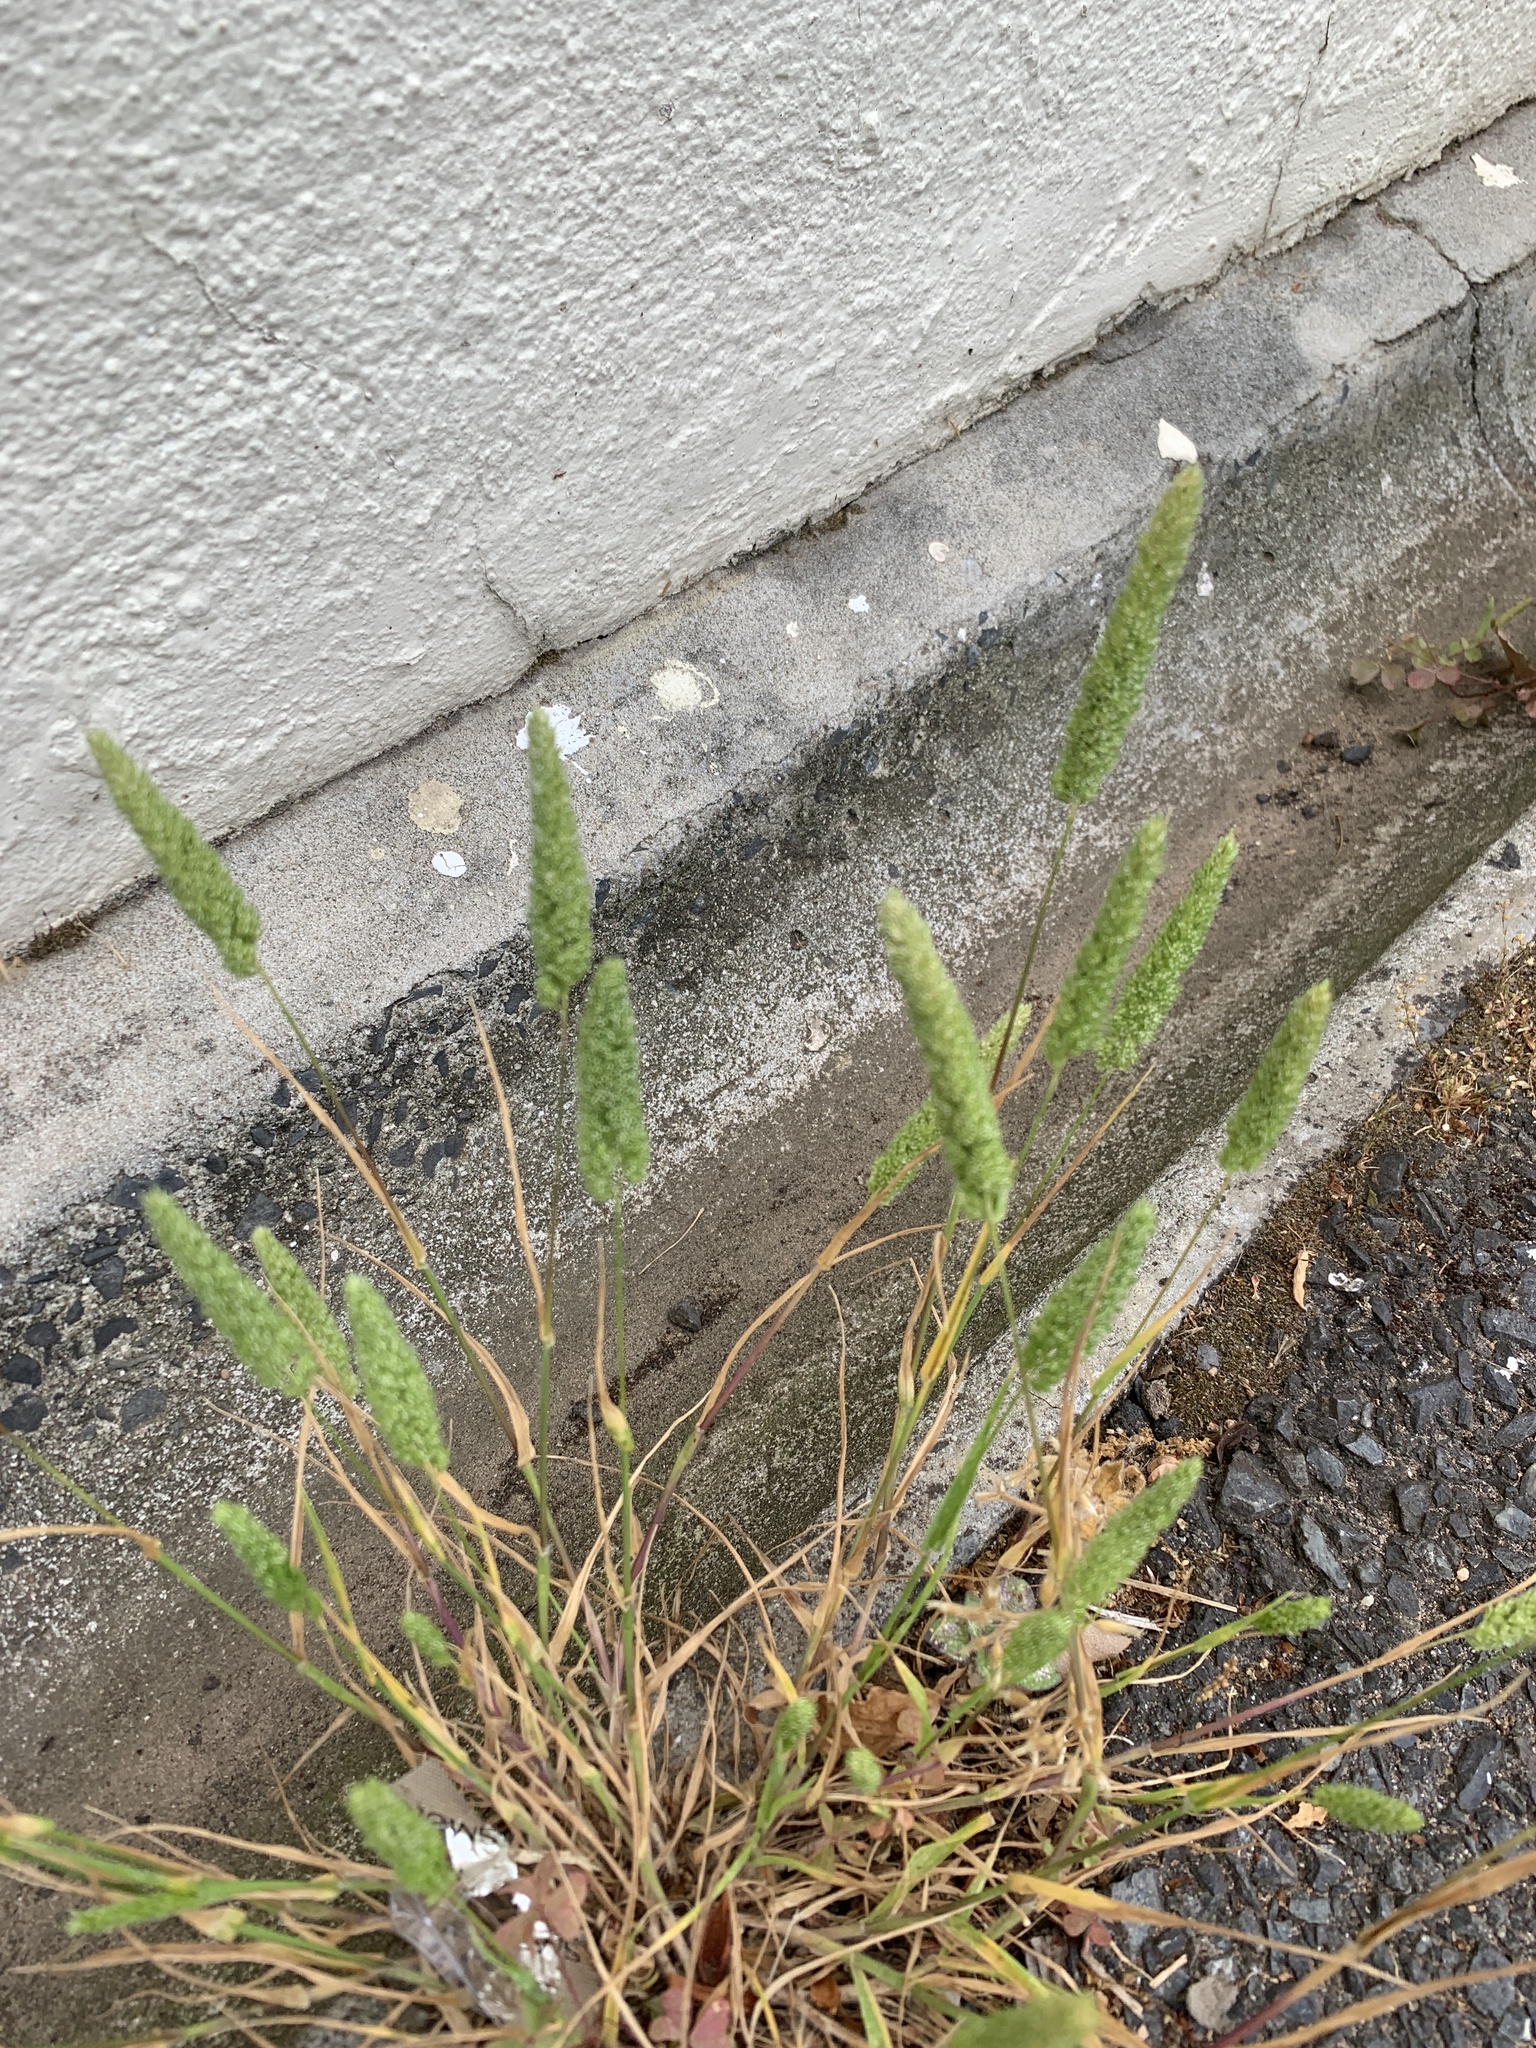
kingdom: Plantae
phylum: Tracheophyta
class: Liliopsida
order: Poales
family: Poaceae
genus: Rostraria
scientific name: Rostraria cristata
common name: Mediterranean hair-grass
